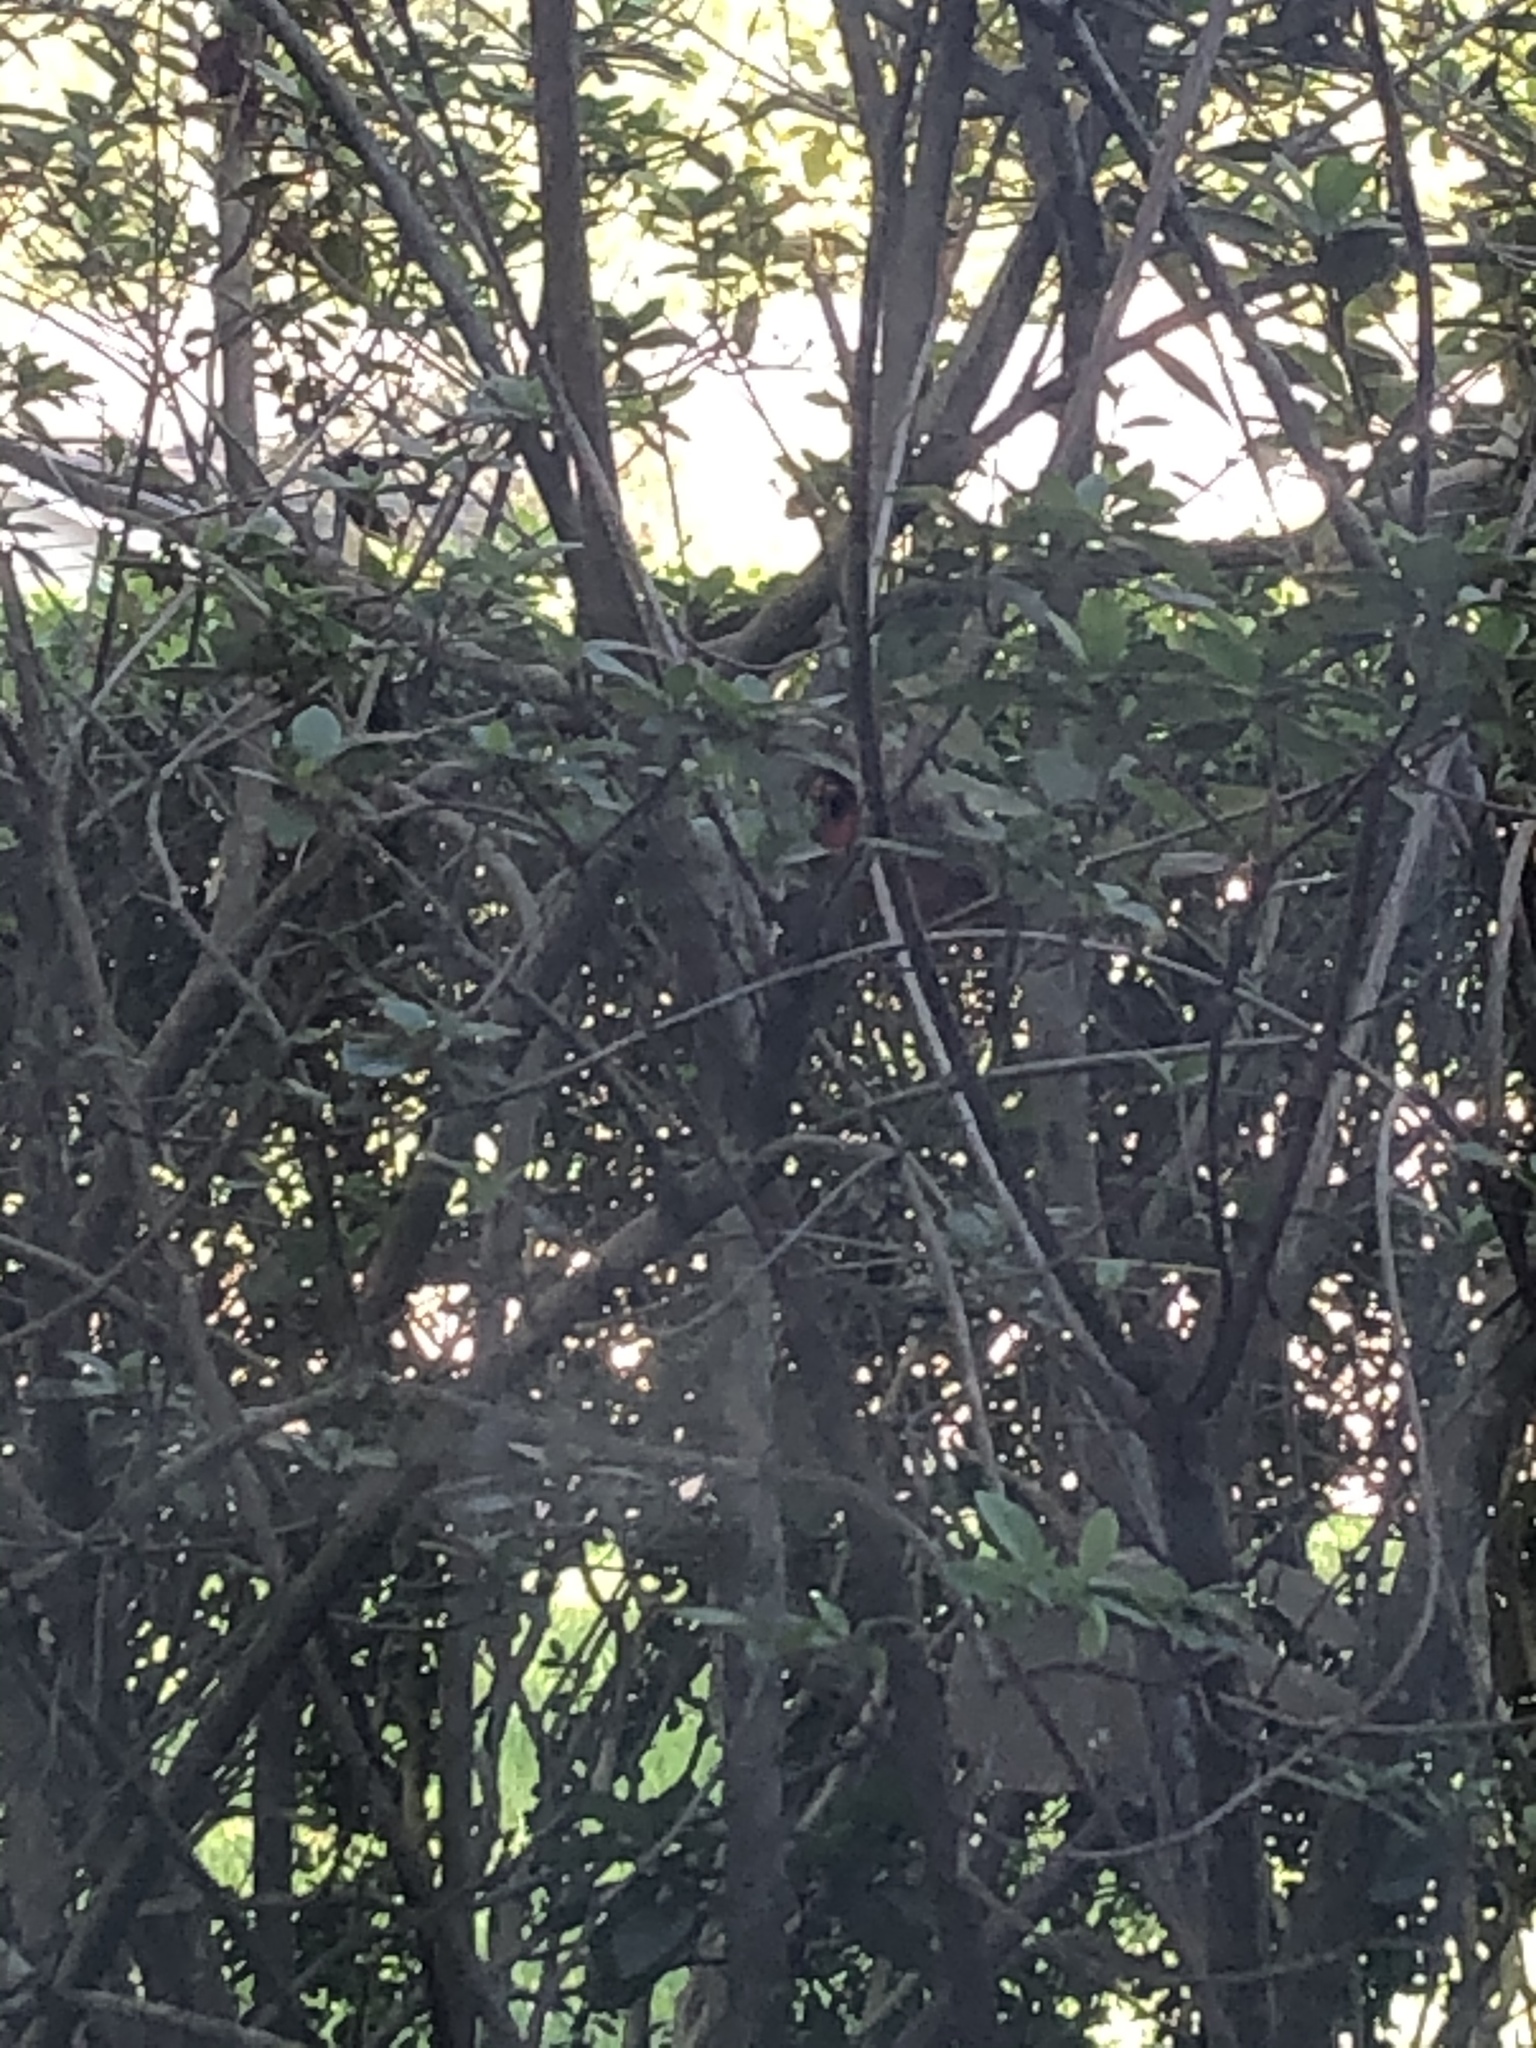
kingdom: Animalia
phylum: Chordata
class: Aves
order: Passeriformes
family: Cardinalidae
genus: Cardinalis
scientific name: Cardinalis cardinalis
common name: Northern cardinal
